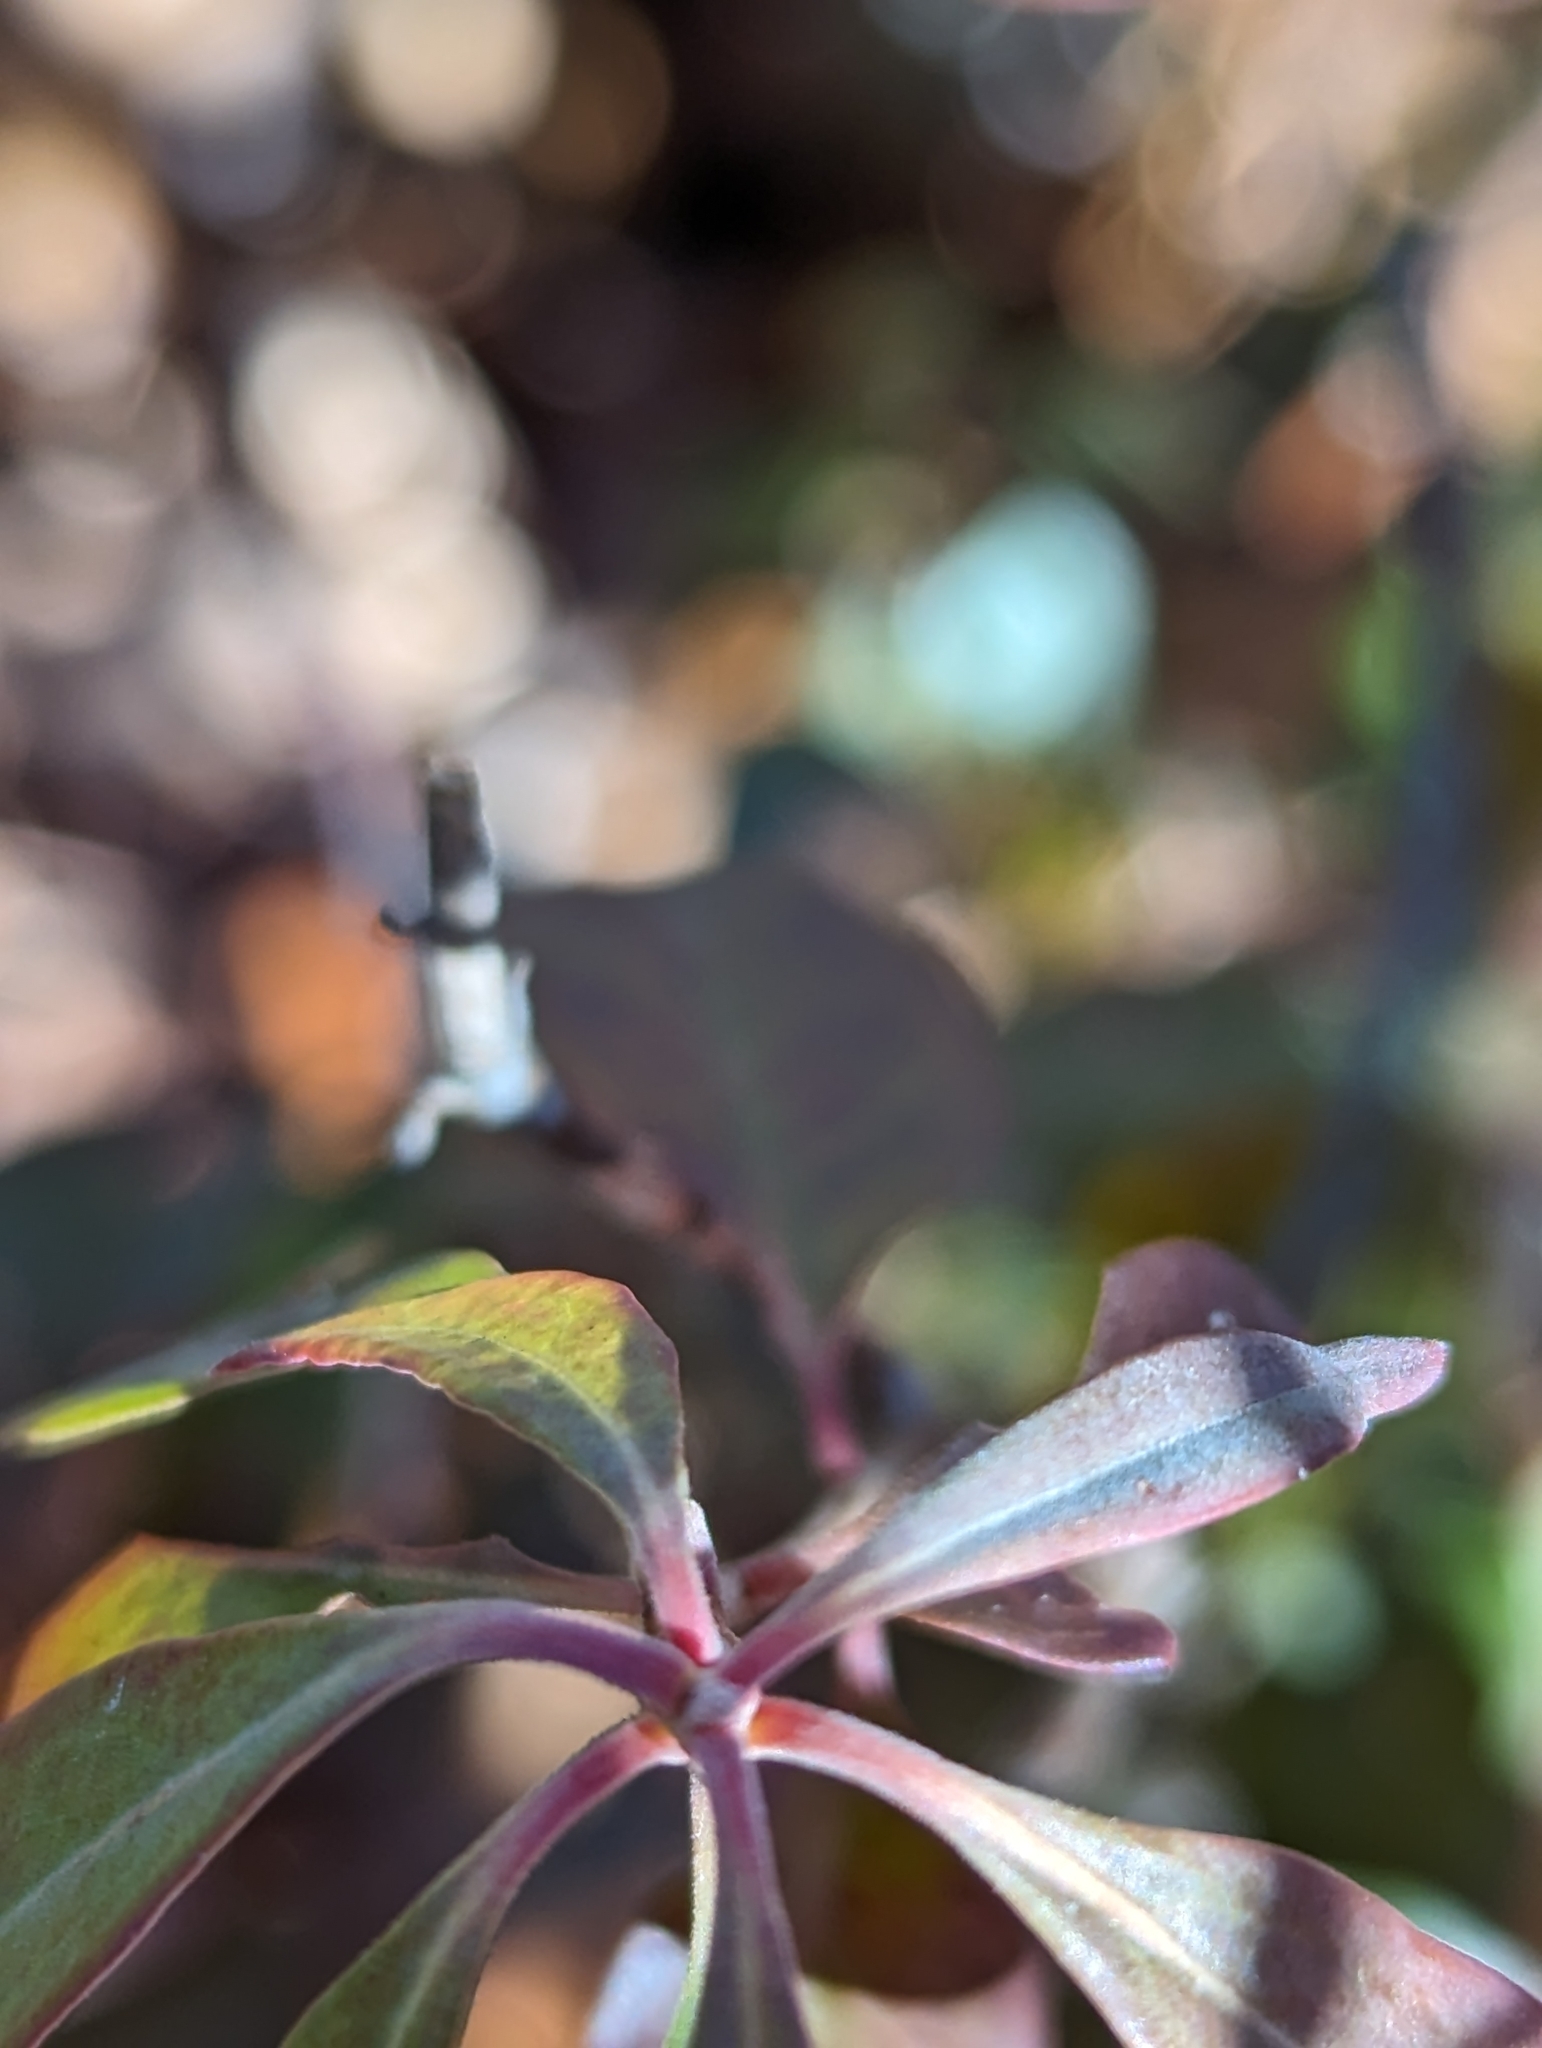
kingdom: Plantae
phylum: Tracheophyta
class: Magnoliopsida
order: Ericales
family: Ericaceae
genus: Kalmia
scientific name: Kalmia angustifolia
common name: Sheep-laurel
